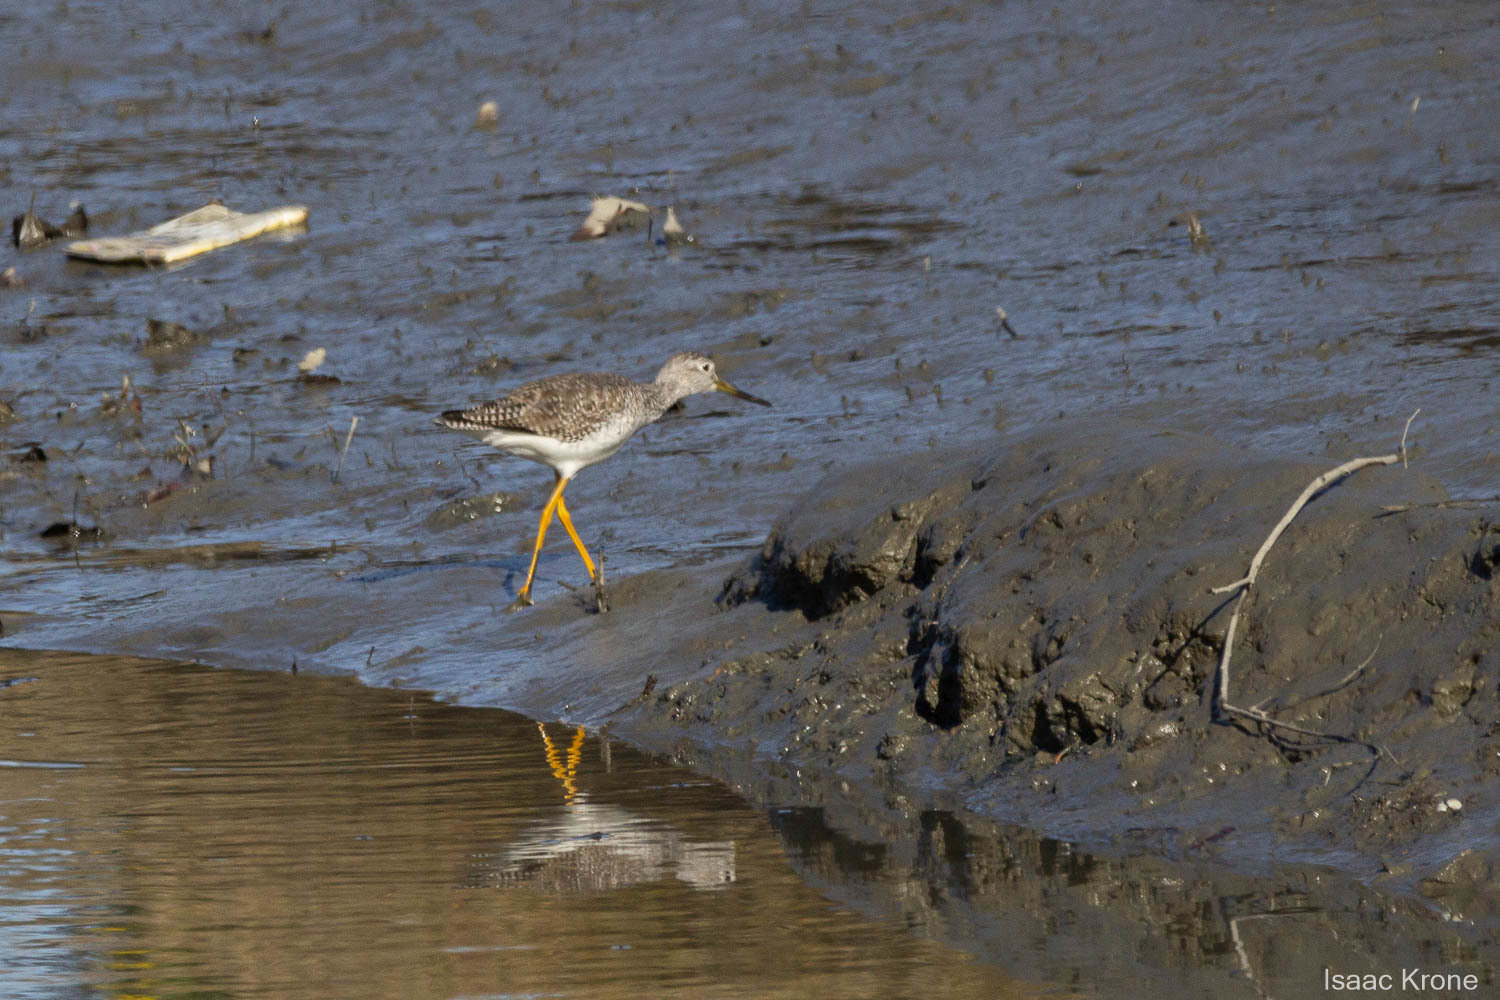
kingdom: Animalia
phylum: Chordata
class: Aves
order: Charadriiformes
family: Scolopacidae
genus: Tringa
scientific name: Tringa melanoleuca
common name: Greater yellowlegs
